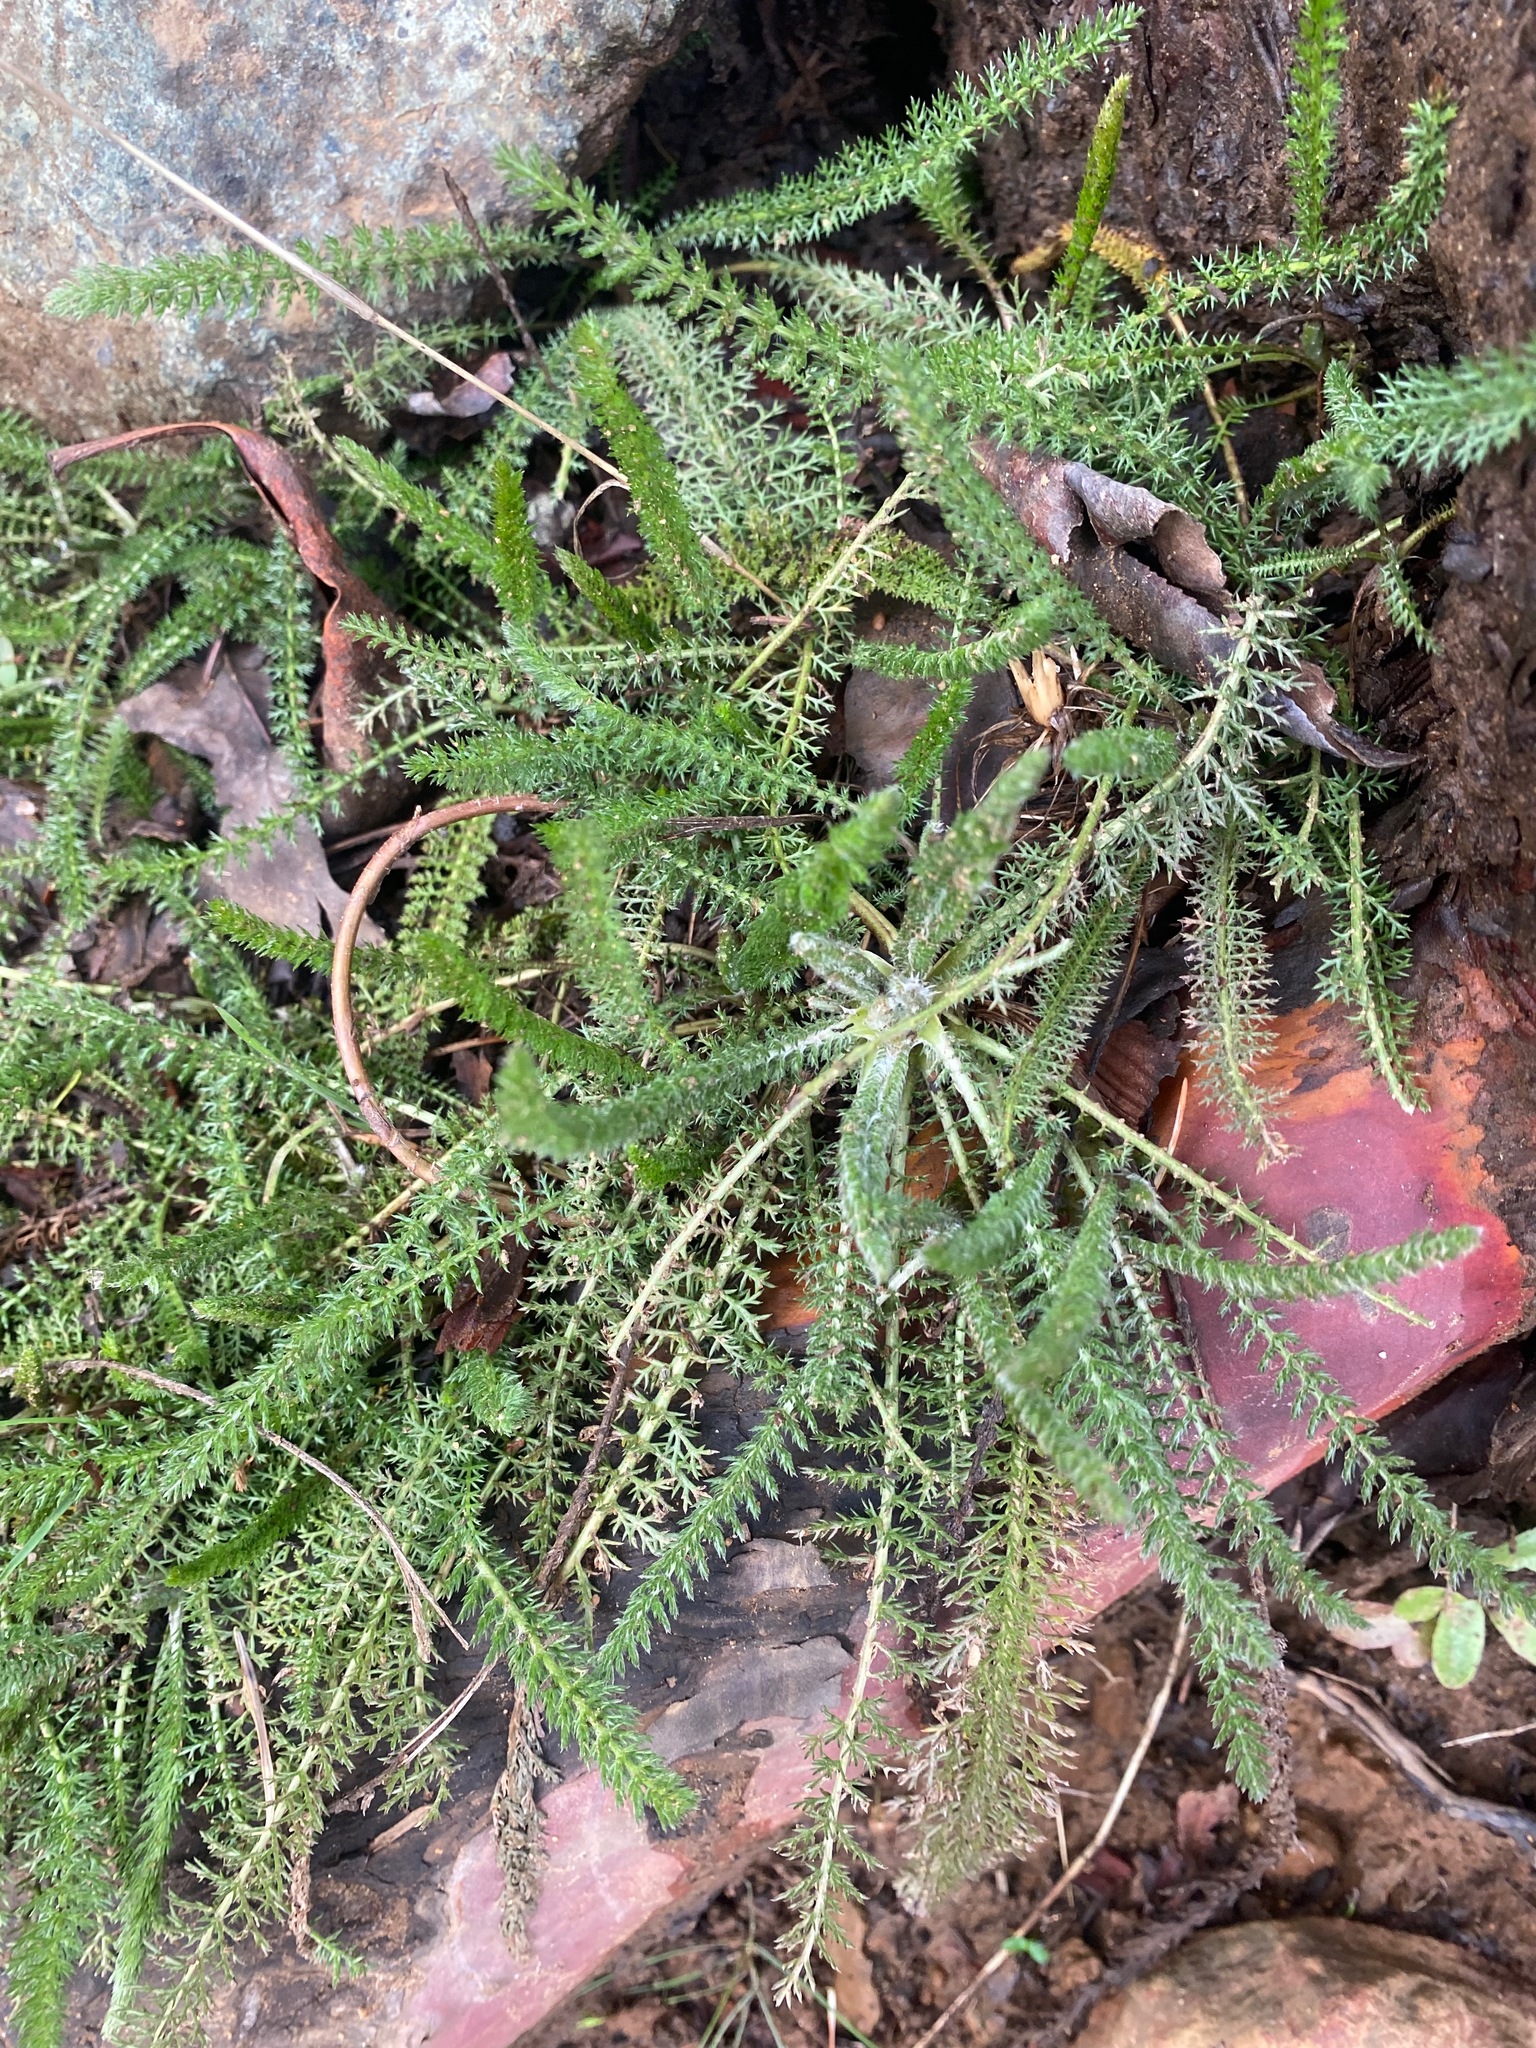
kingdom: Plantae
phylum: Tracheophyta
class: Magnoliopsida
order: Asterales
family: Asteraceae
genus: Achillea
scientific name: Achillea millefolium
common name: Yarrow
